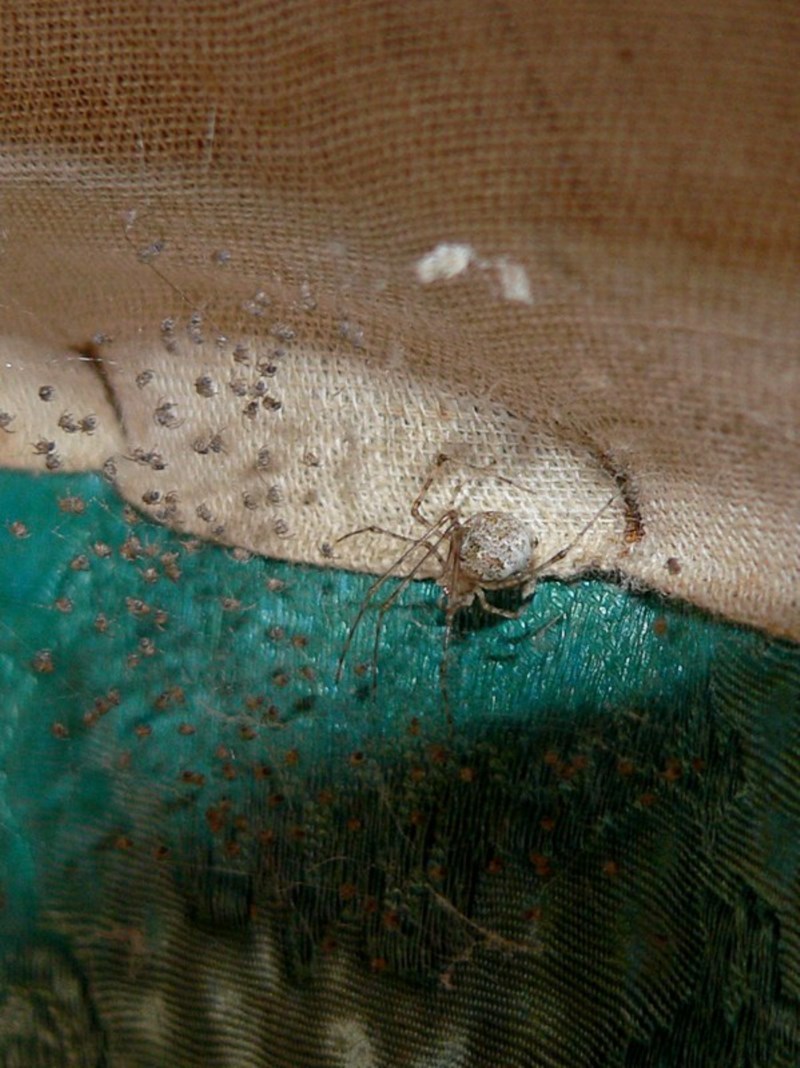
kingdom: Animalia
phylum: Arthropoda
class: Arachnida
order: Araneae
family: Theridiidae
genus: Cryptachaea
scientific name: Cryptachaea gigantipes
